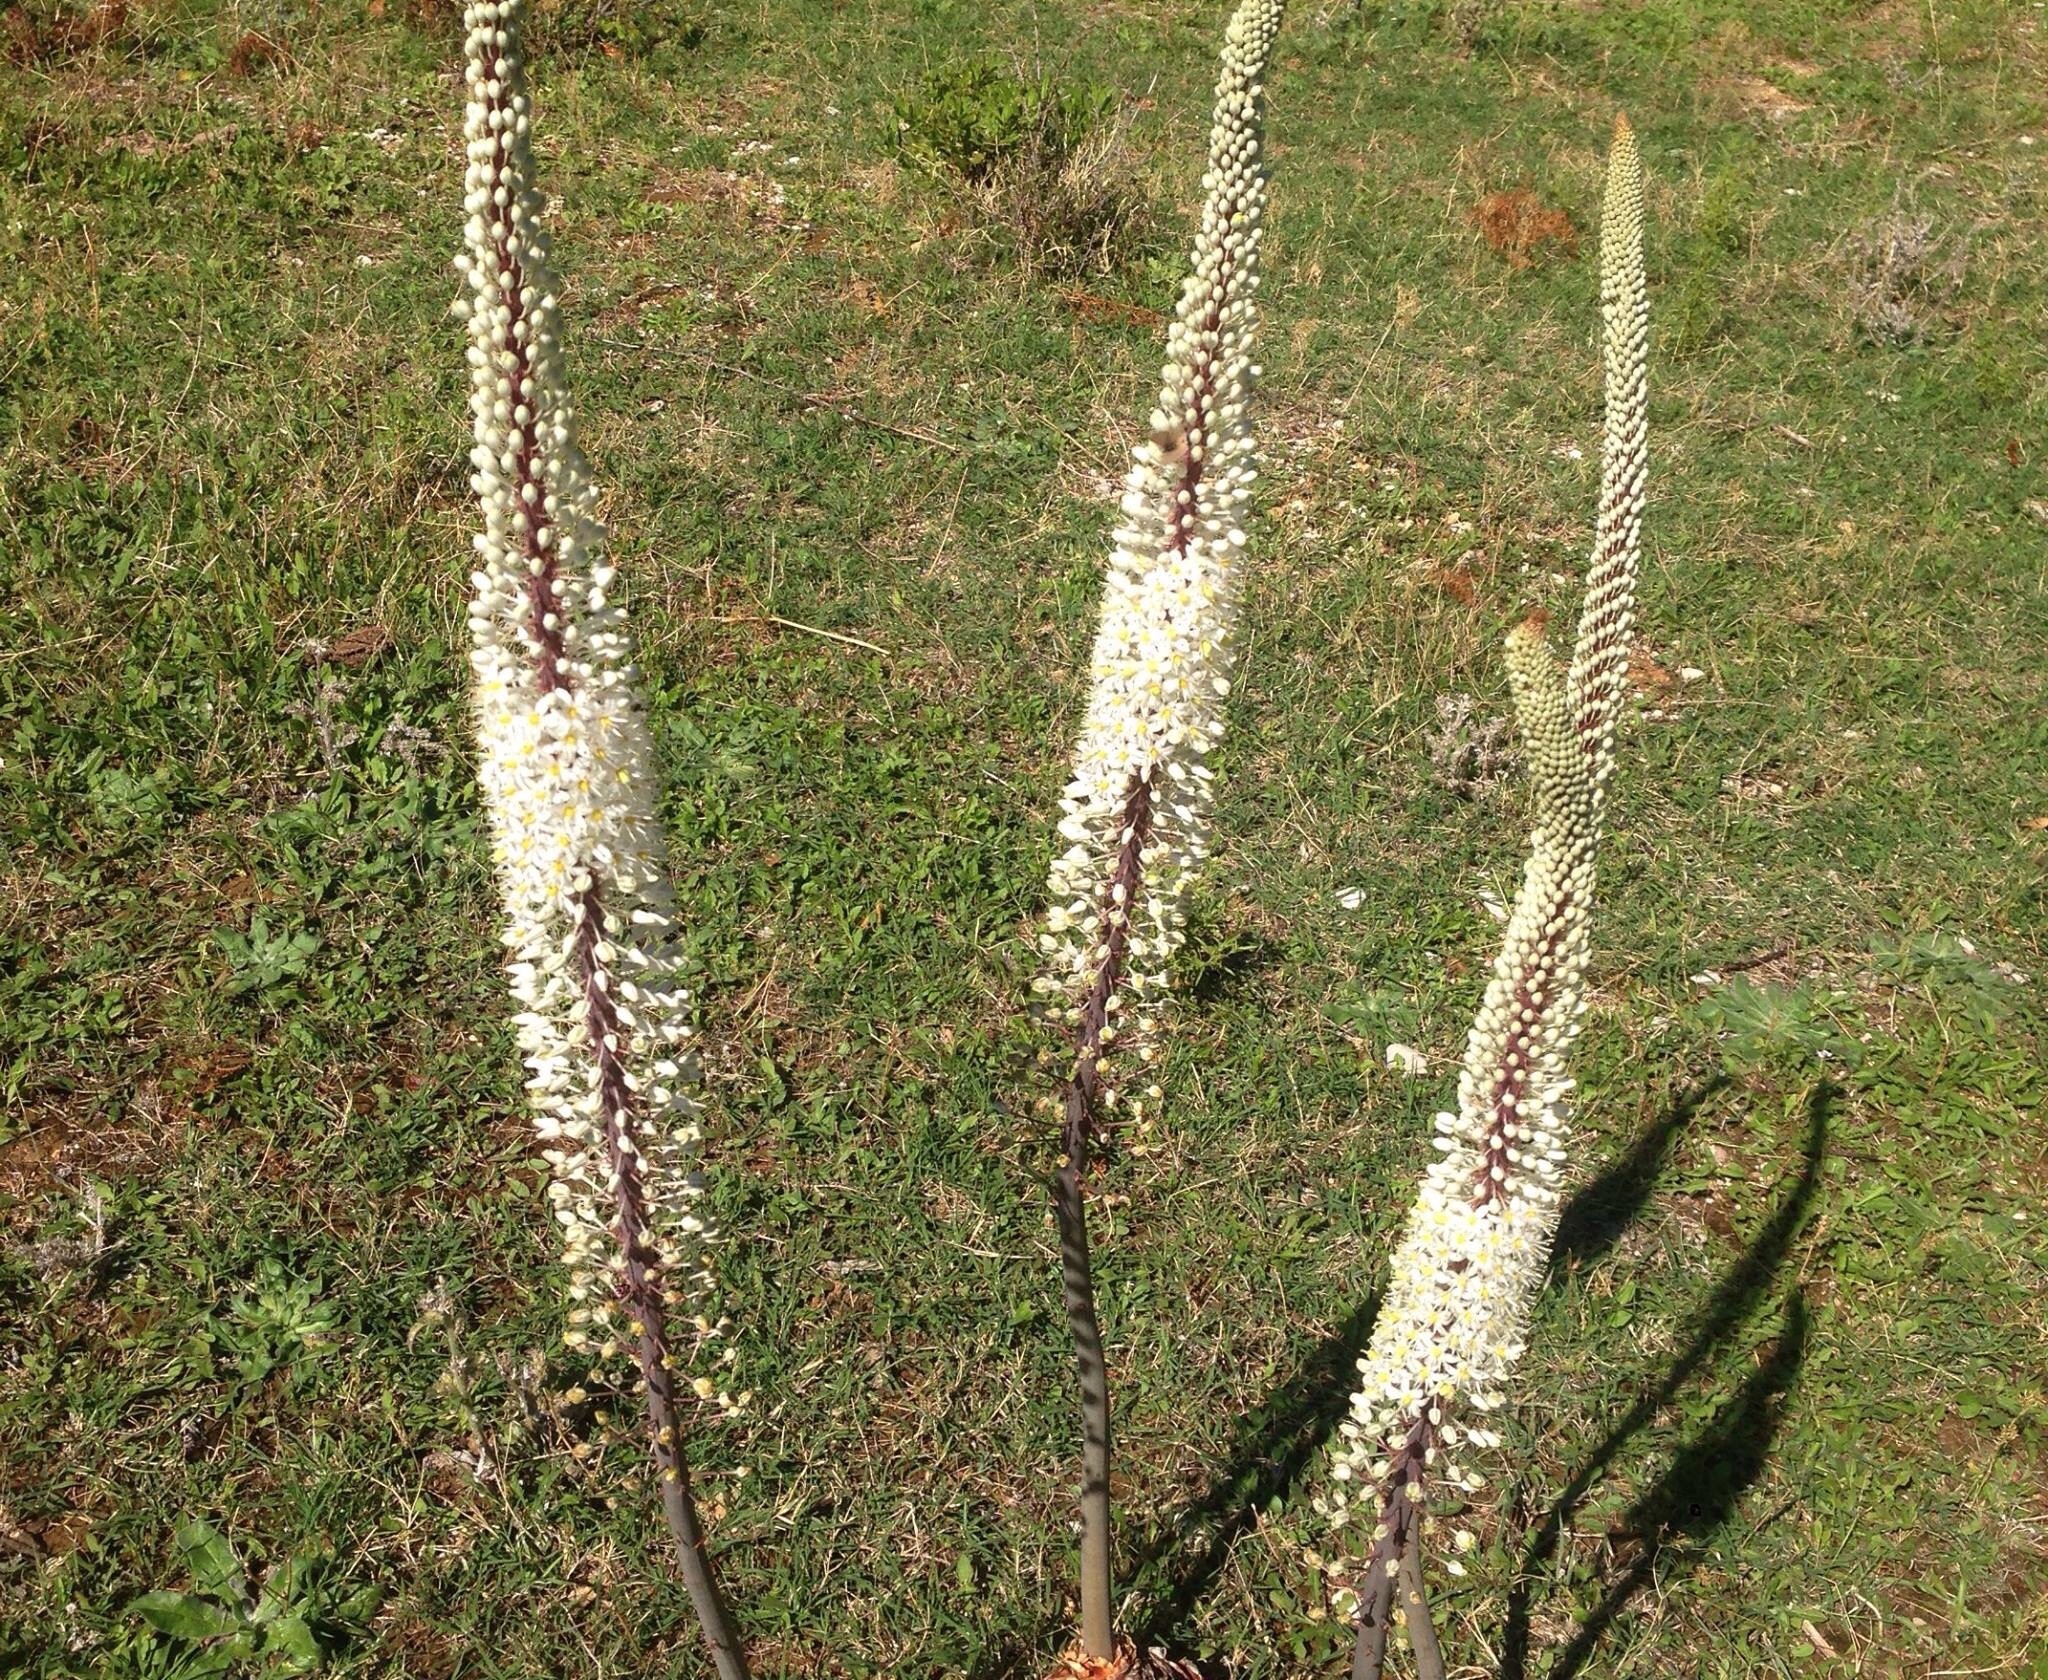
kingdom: Plantae
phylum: Tracheophyta
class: Liliopsida
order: Asparagales
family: Asparagaceae
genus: Drimia
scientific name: Drimia numidica
